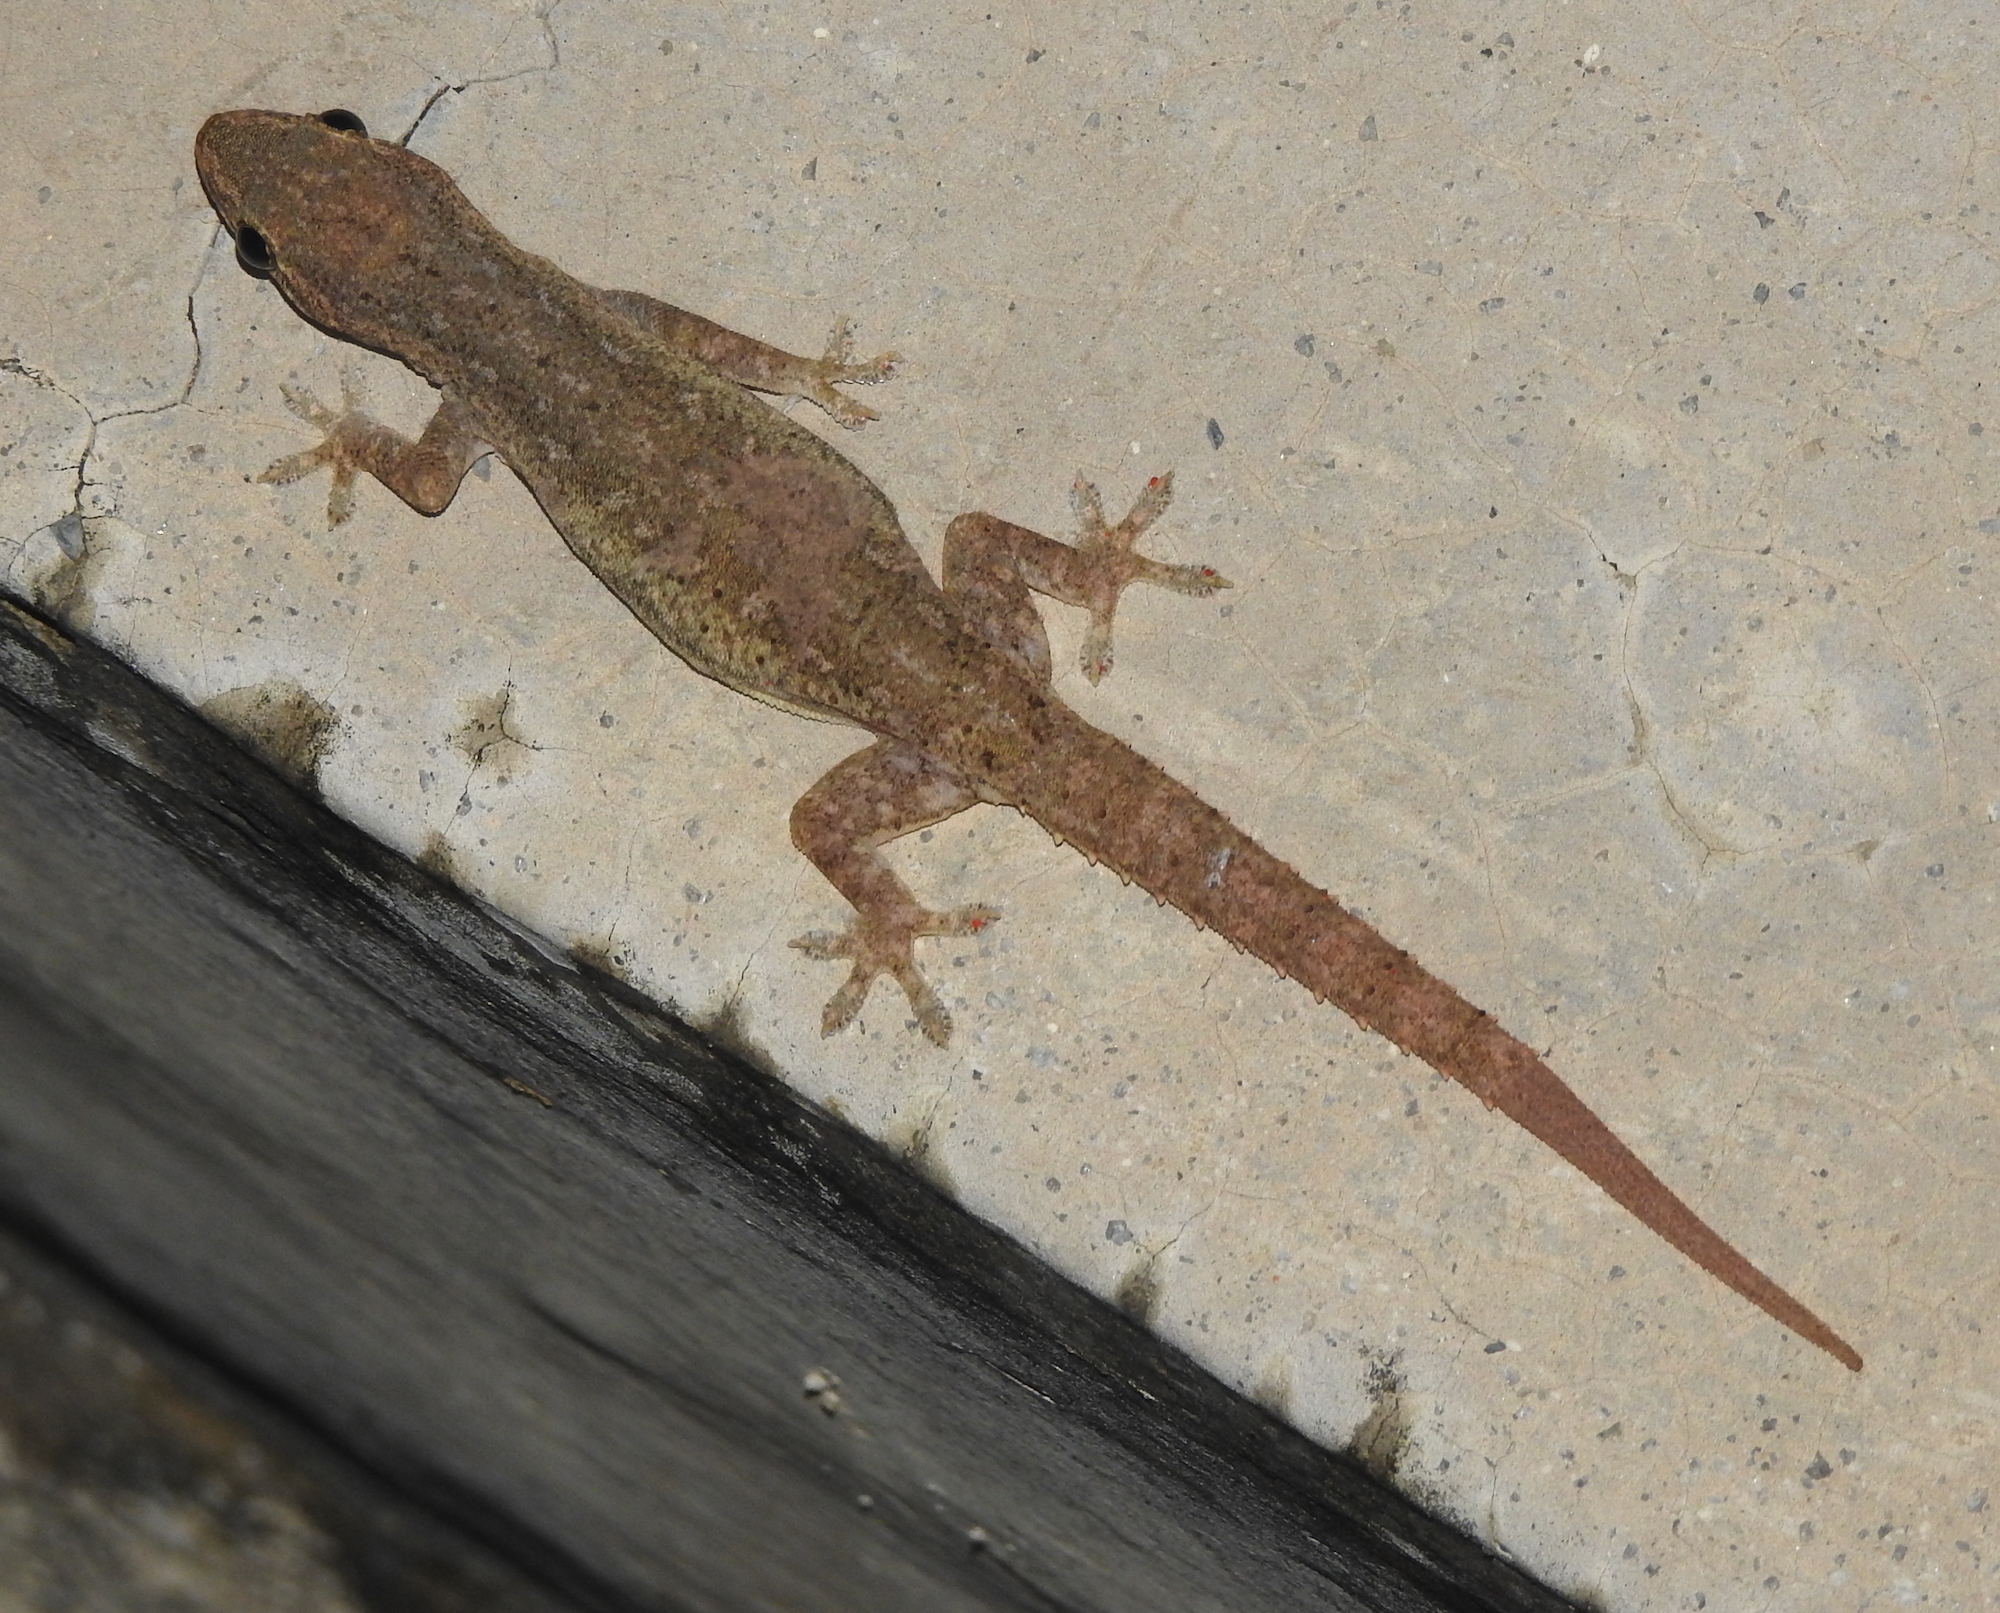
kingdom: Animalia
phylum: Chordata
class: Squamata
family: Gekkonidae
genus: Hemidactylus
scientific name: Hemidactylus frenatus
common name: Common house gecko
